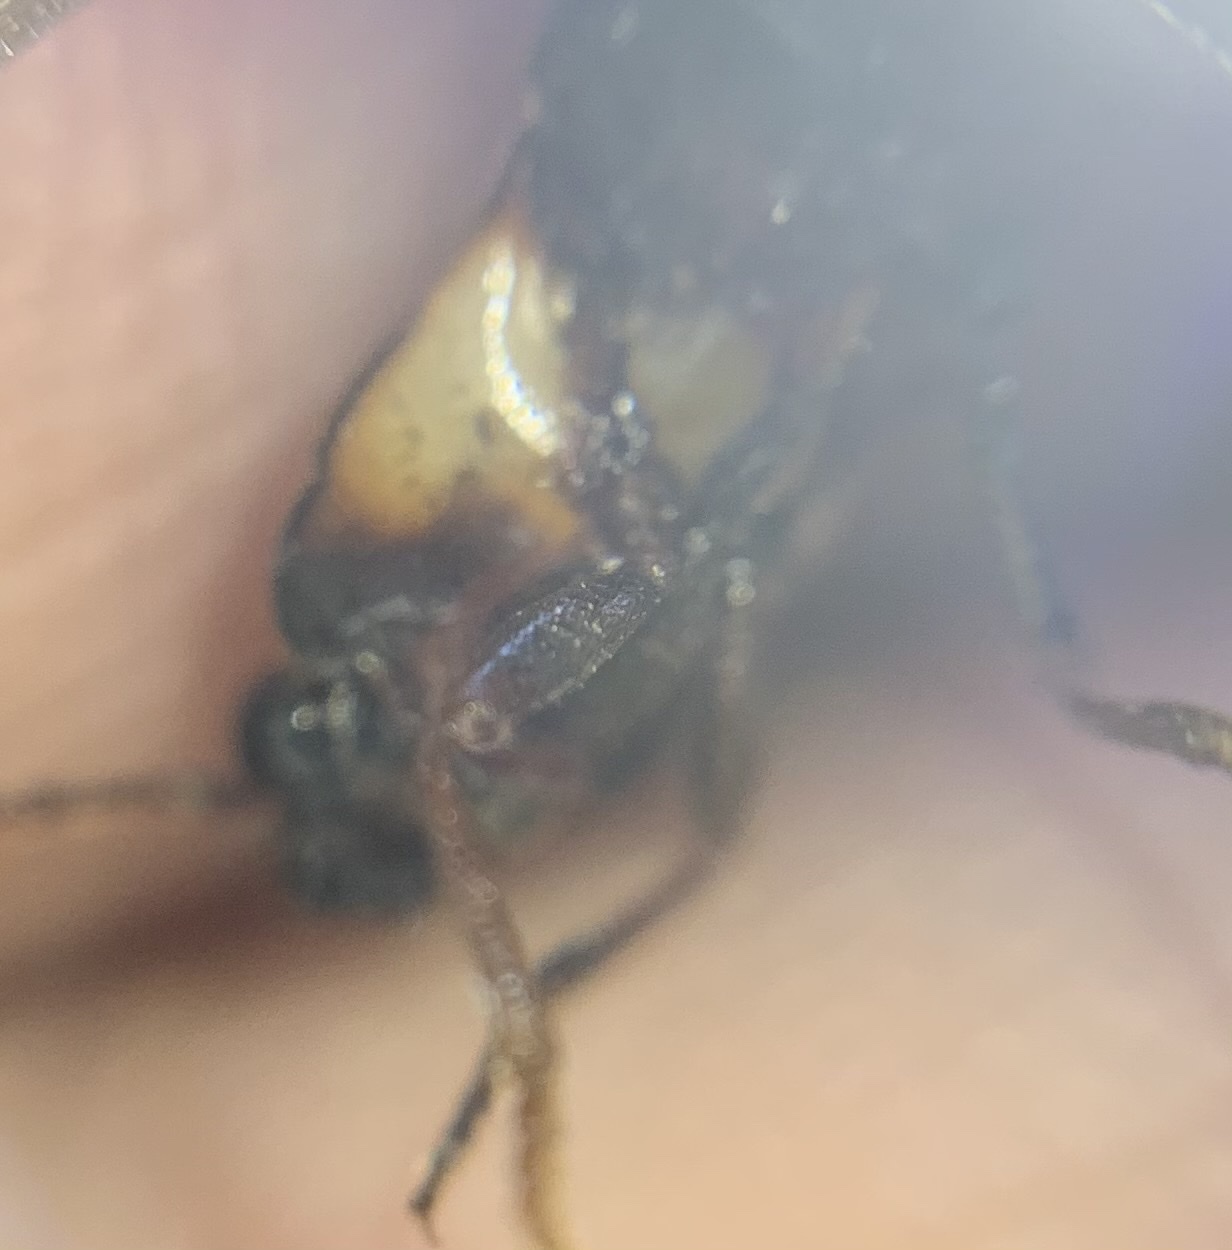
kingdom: Animalia
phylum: Arthropoda
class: Insecta
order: Coleoptera
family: Elateridae
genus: Phanophorus
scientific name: Phanophorus
